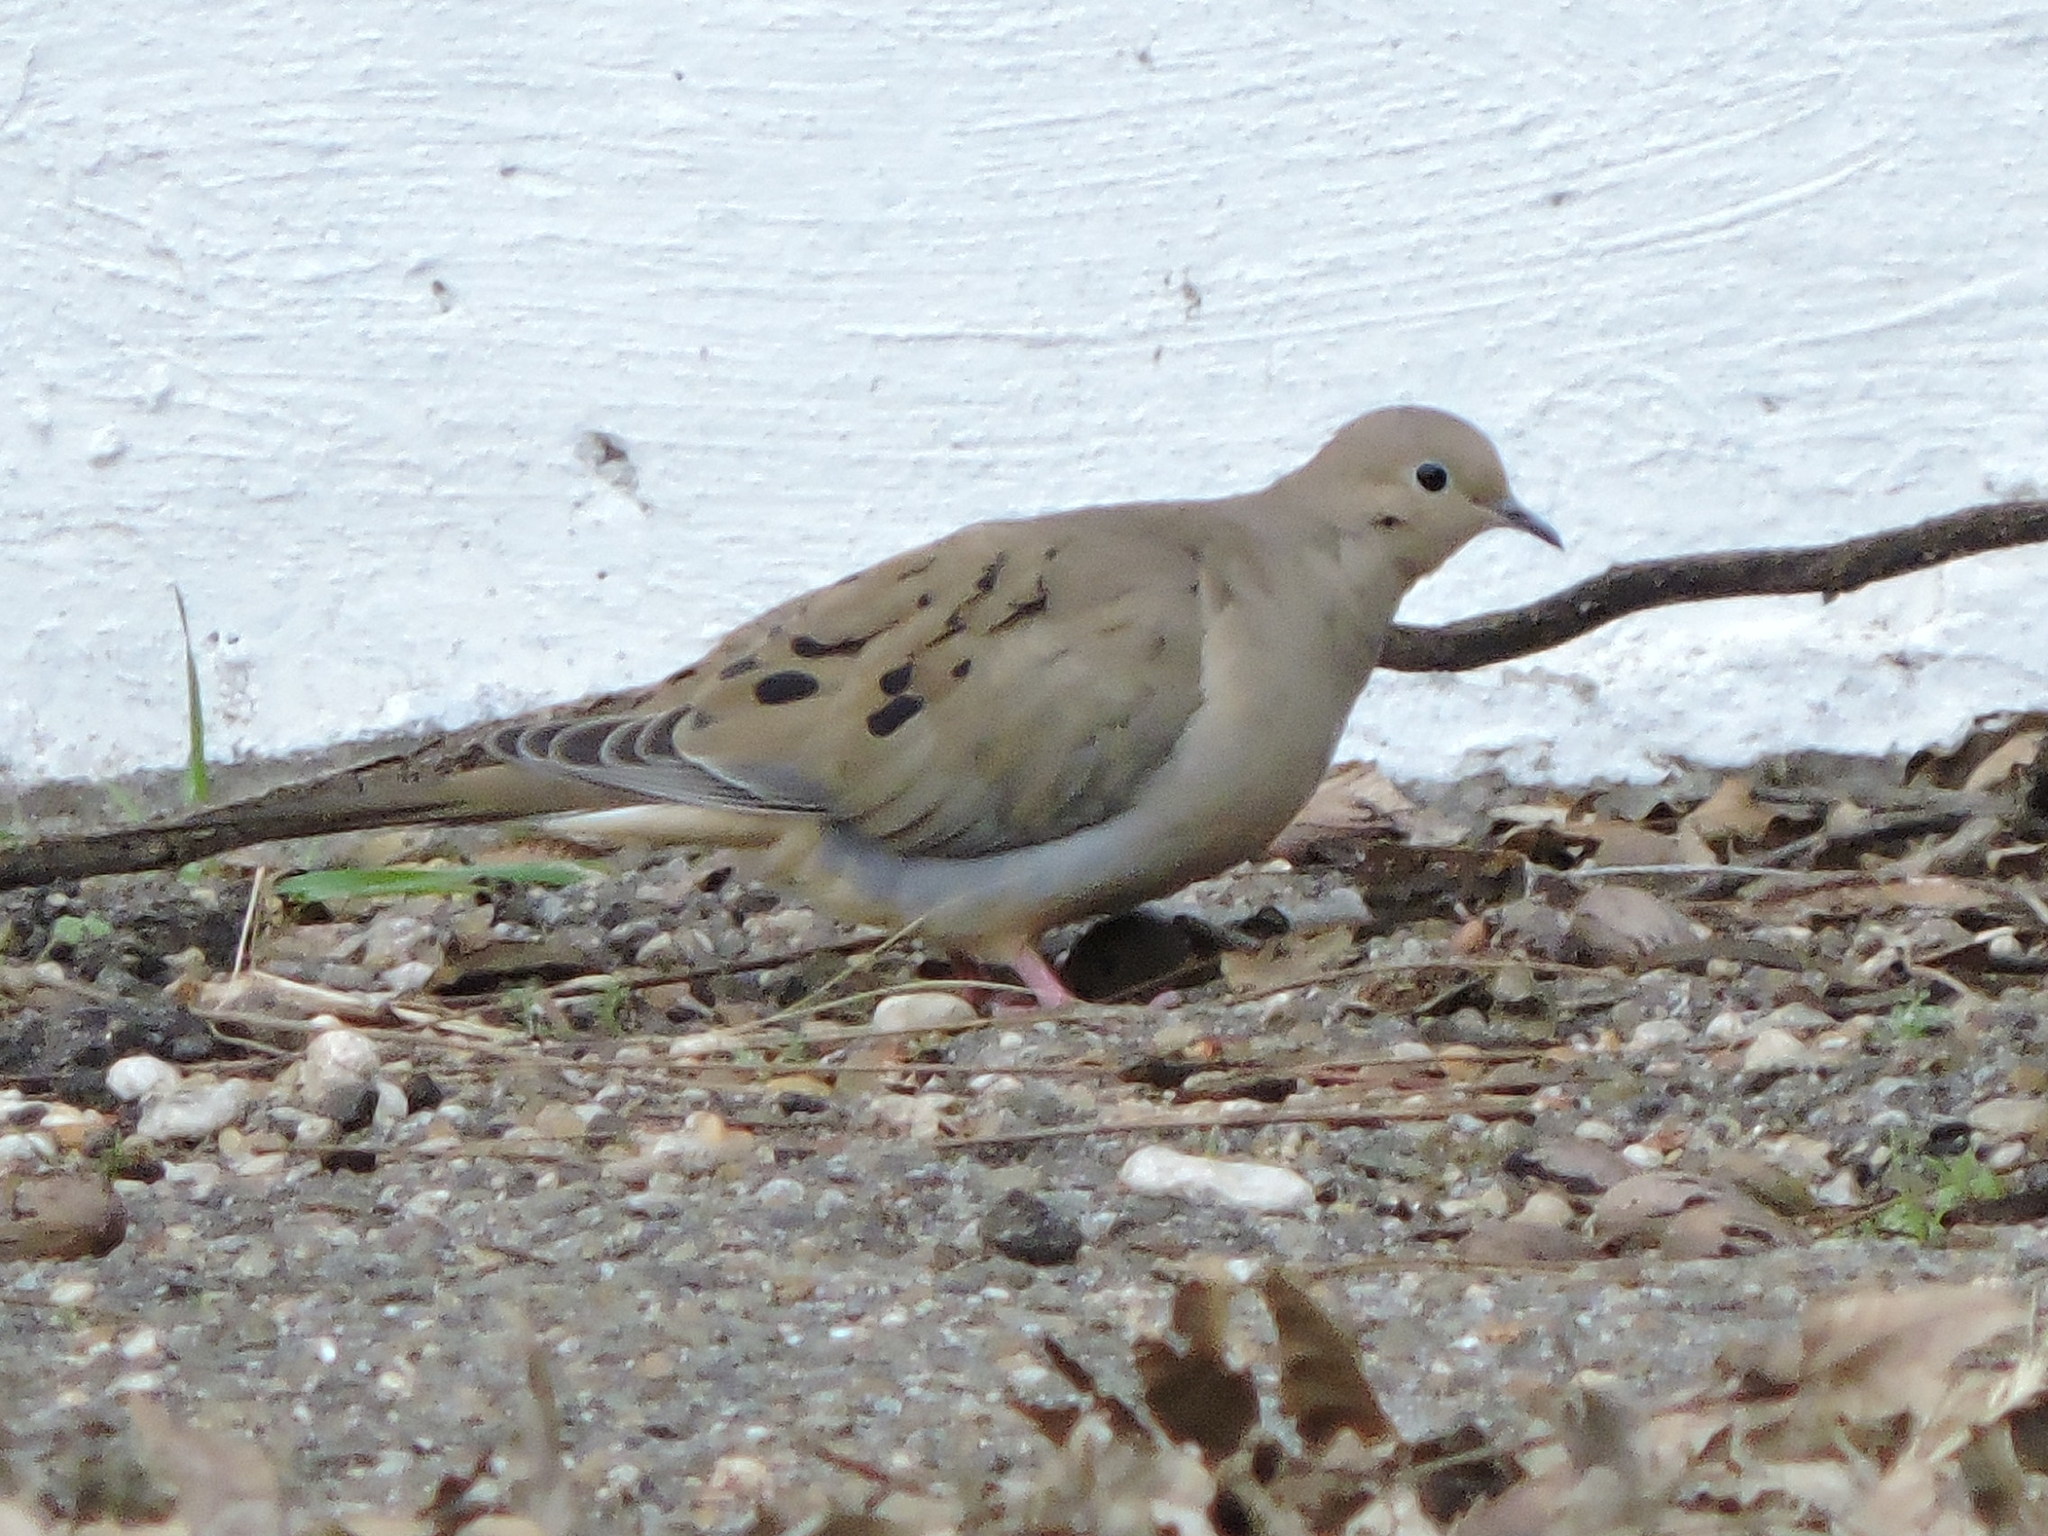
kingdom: Animalia
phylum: Chordata
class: Aves
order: Columbiformes
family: Columbidae
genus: Zenaida
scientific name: Zenaida macroura
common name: Mourning dove
